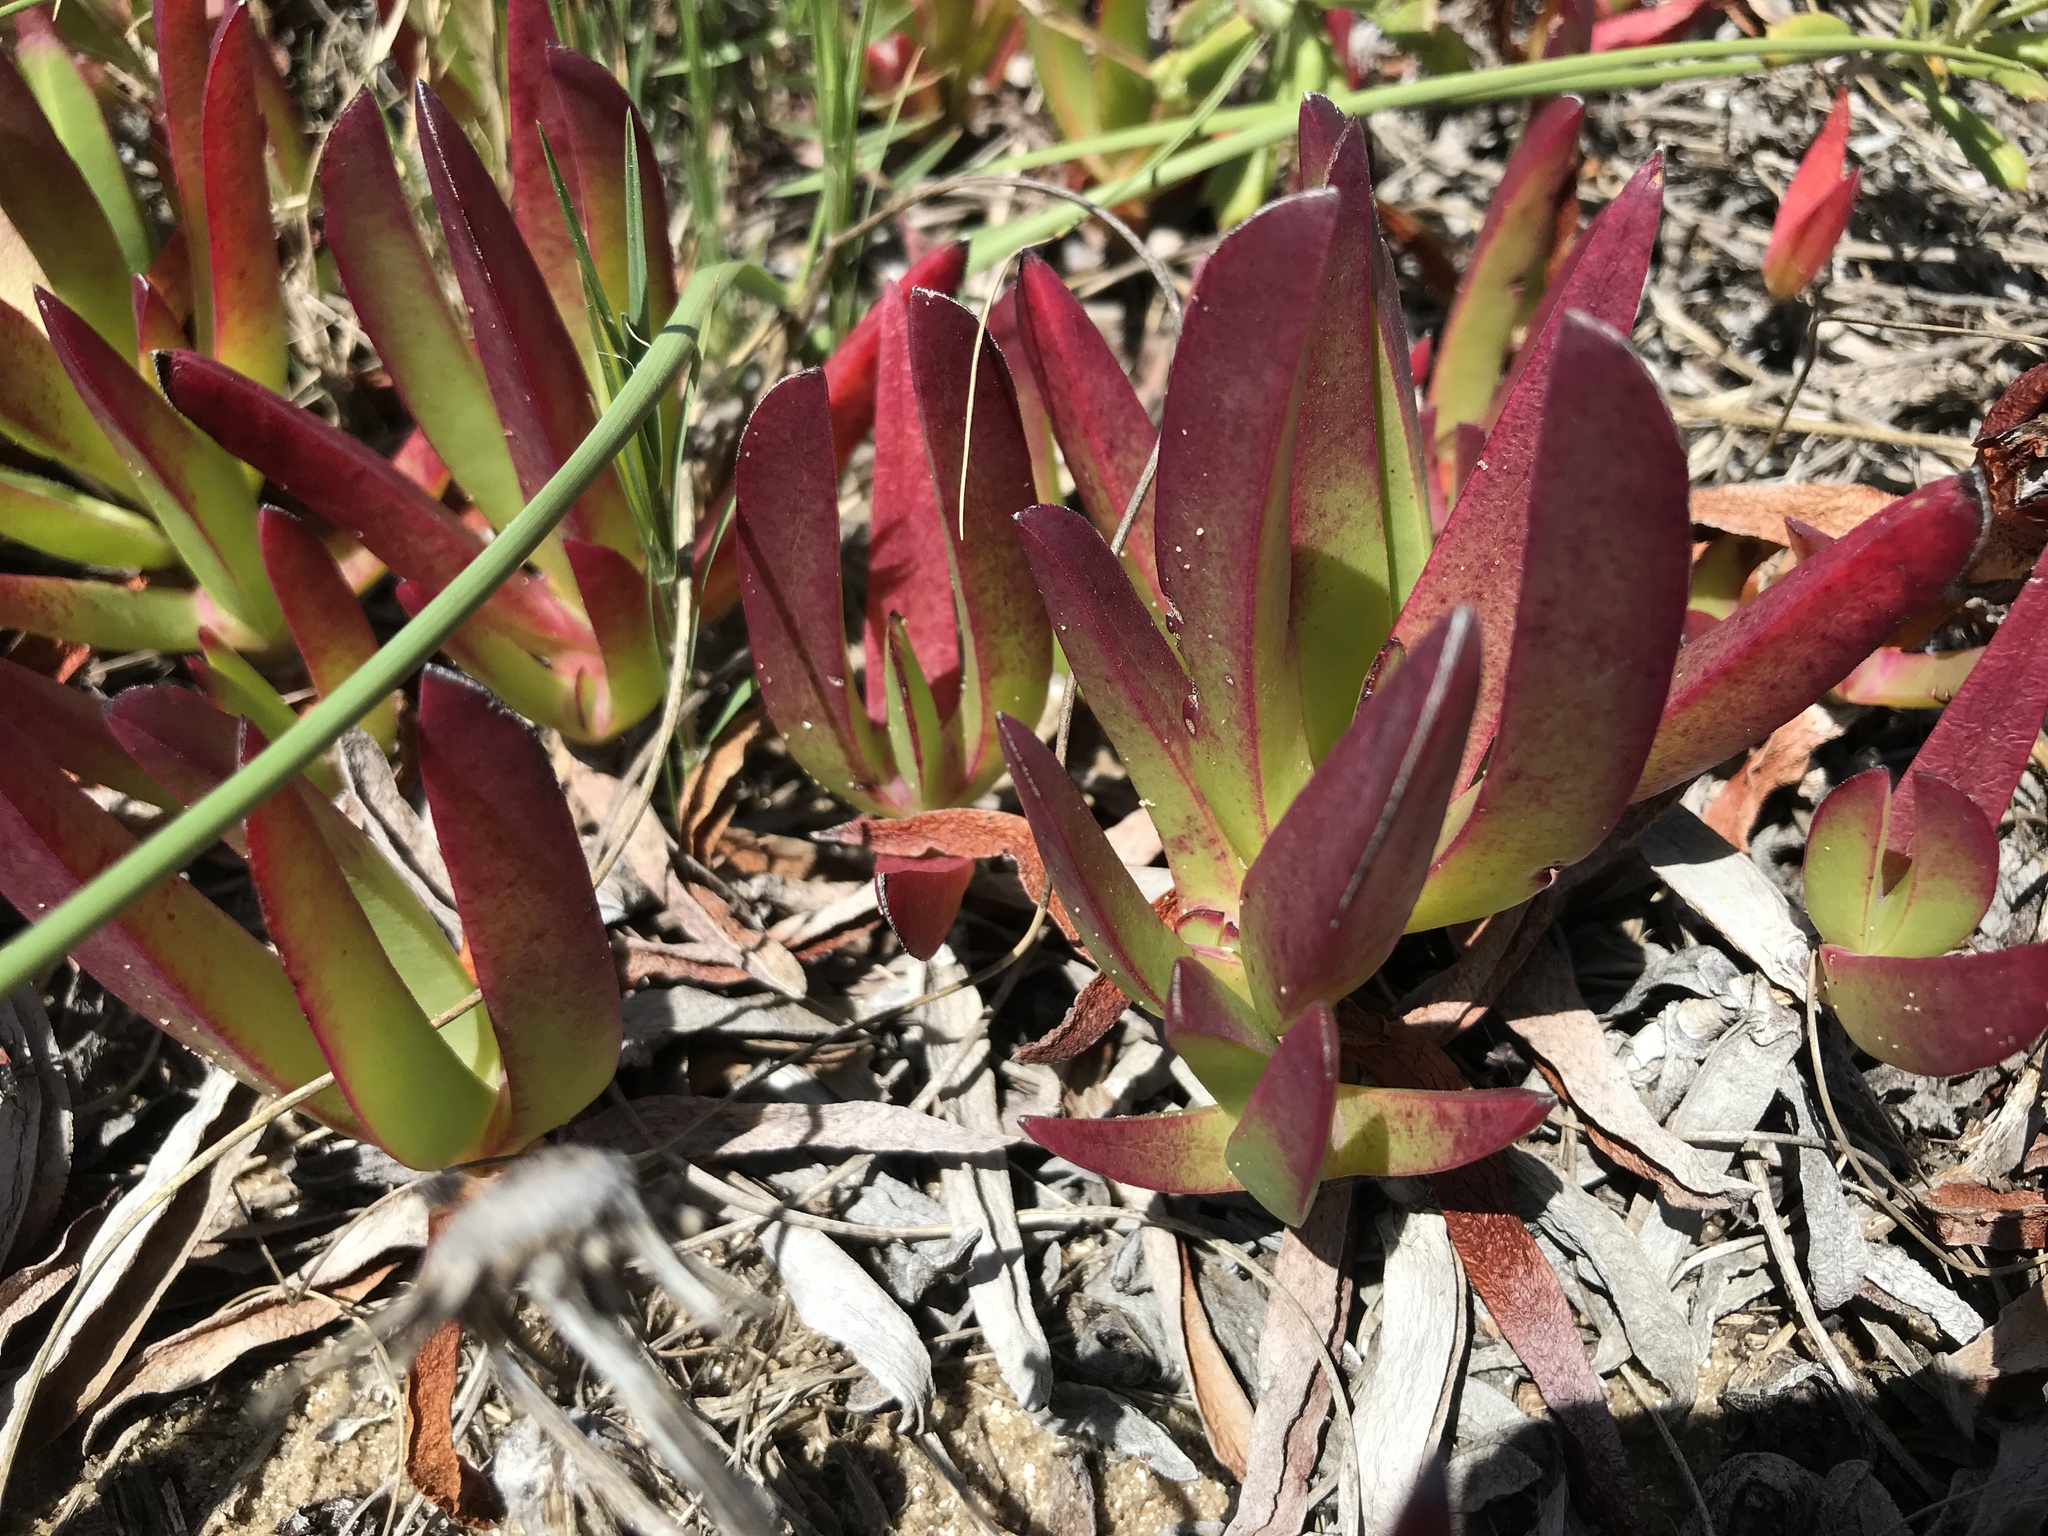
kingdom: Plantae
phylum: Tracheophyta
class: Magnoliopsida
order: Caryophyllales
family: Aizoaceae
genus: Carpobrotus
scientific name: Carpobrotus edulis
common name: Hottentot-fig
